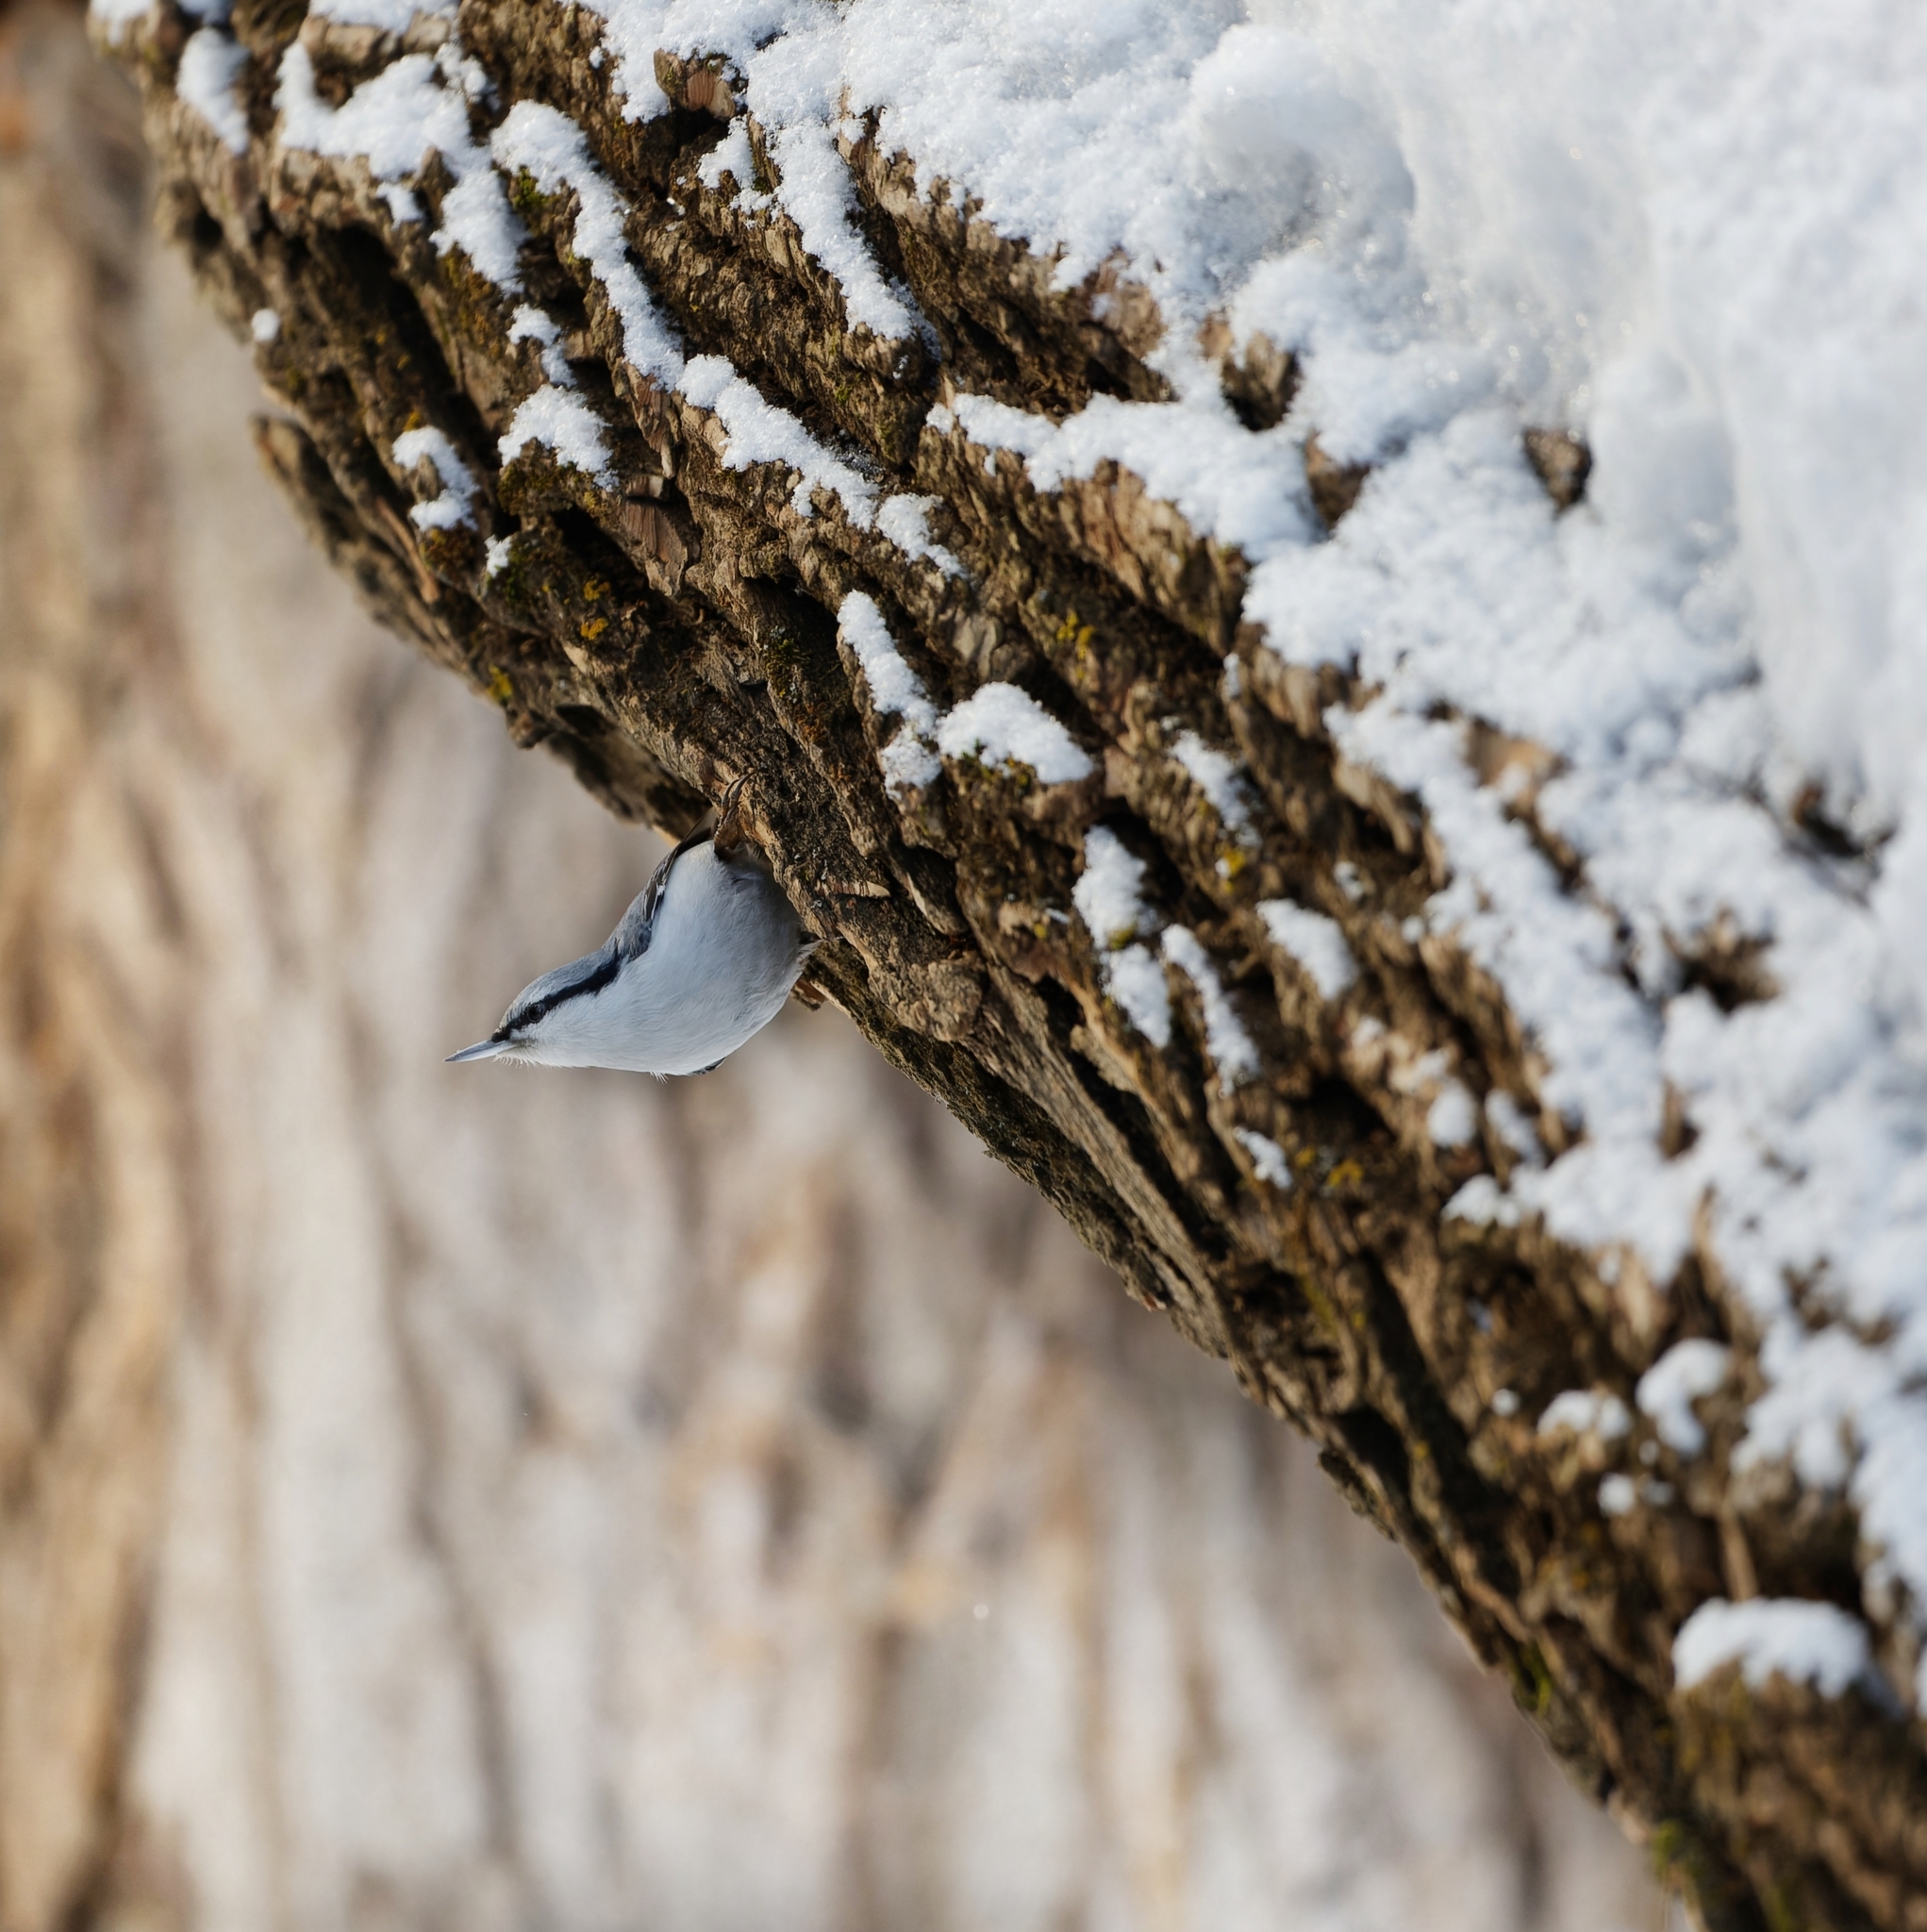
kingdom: Animalia
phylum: Chordata
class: Aves
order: Passeriformes
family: Sittidae
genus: Sitta
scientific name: Sitta europaea
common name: Eurasian nuthatch
